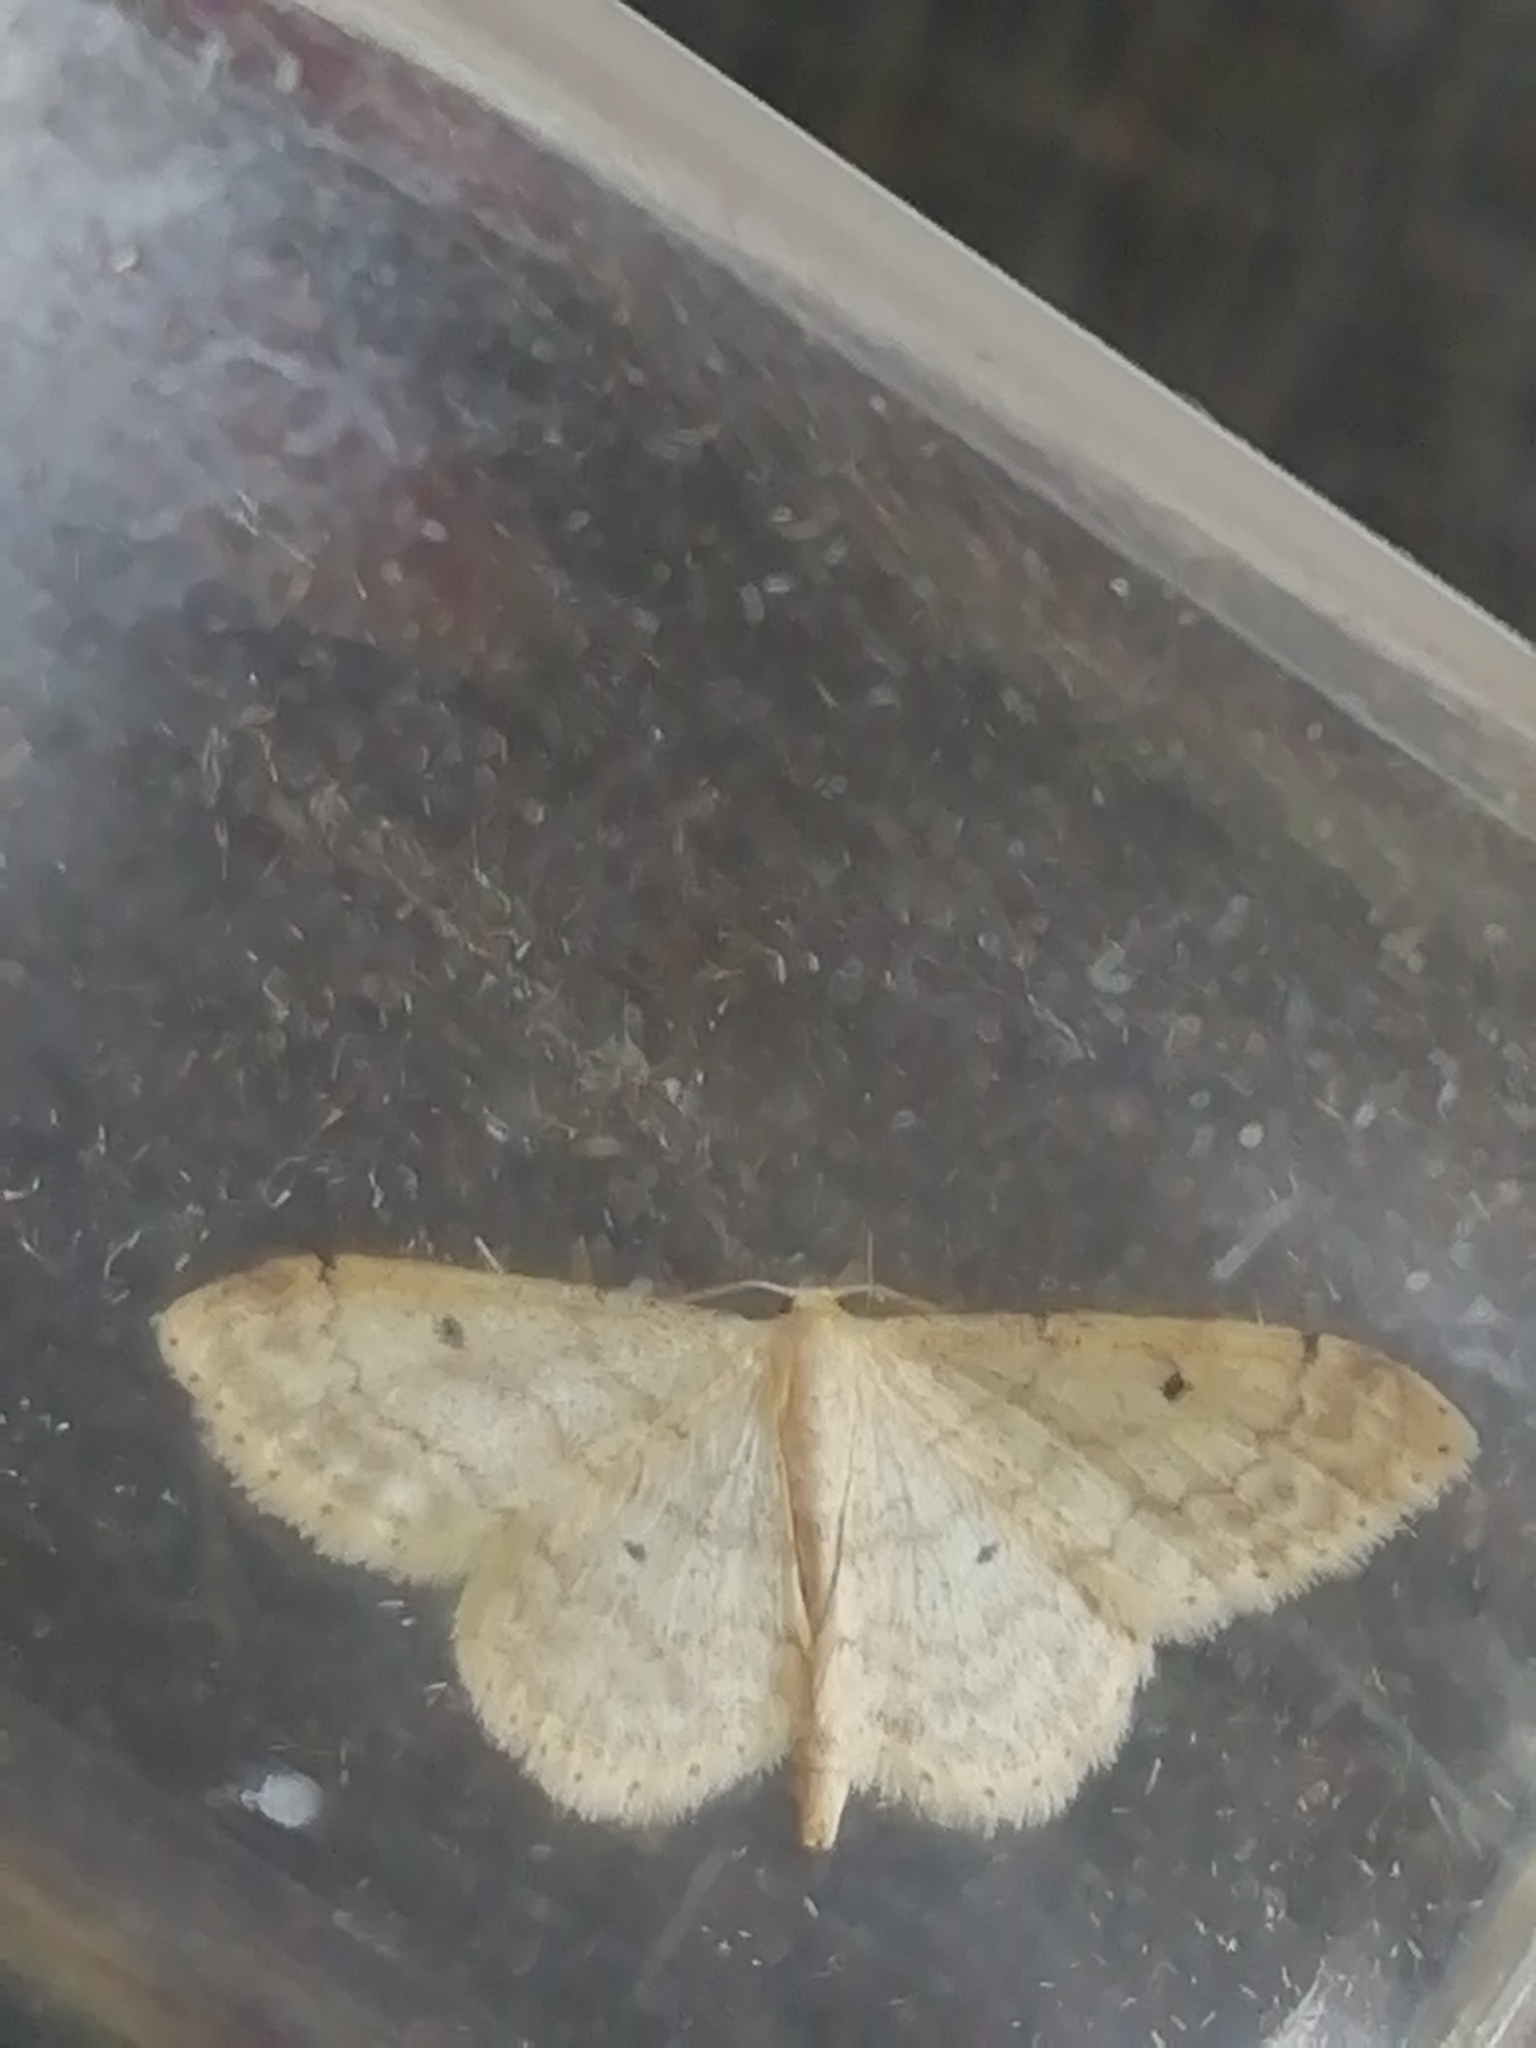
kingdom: Animalia
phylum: Arthropoda
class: Insecta
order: Lepidoptera
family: Geometridae
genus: Idaea
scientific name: Idaea biselata
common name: Small fan-footed wave
